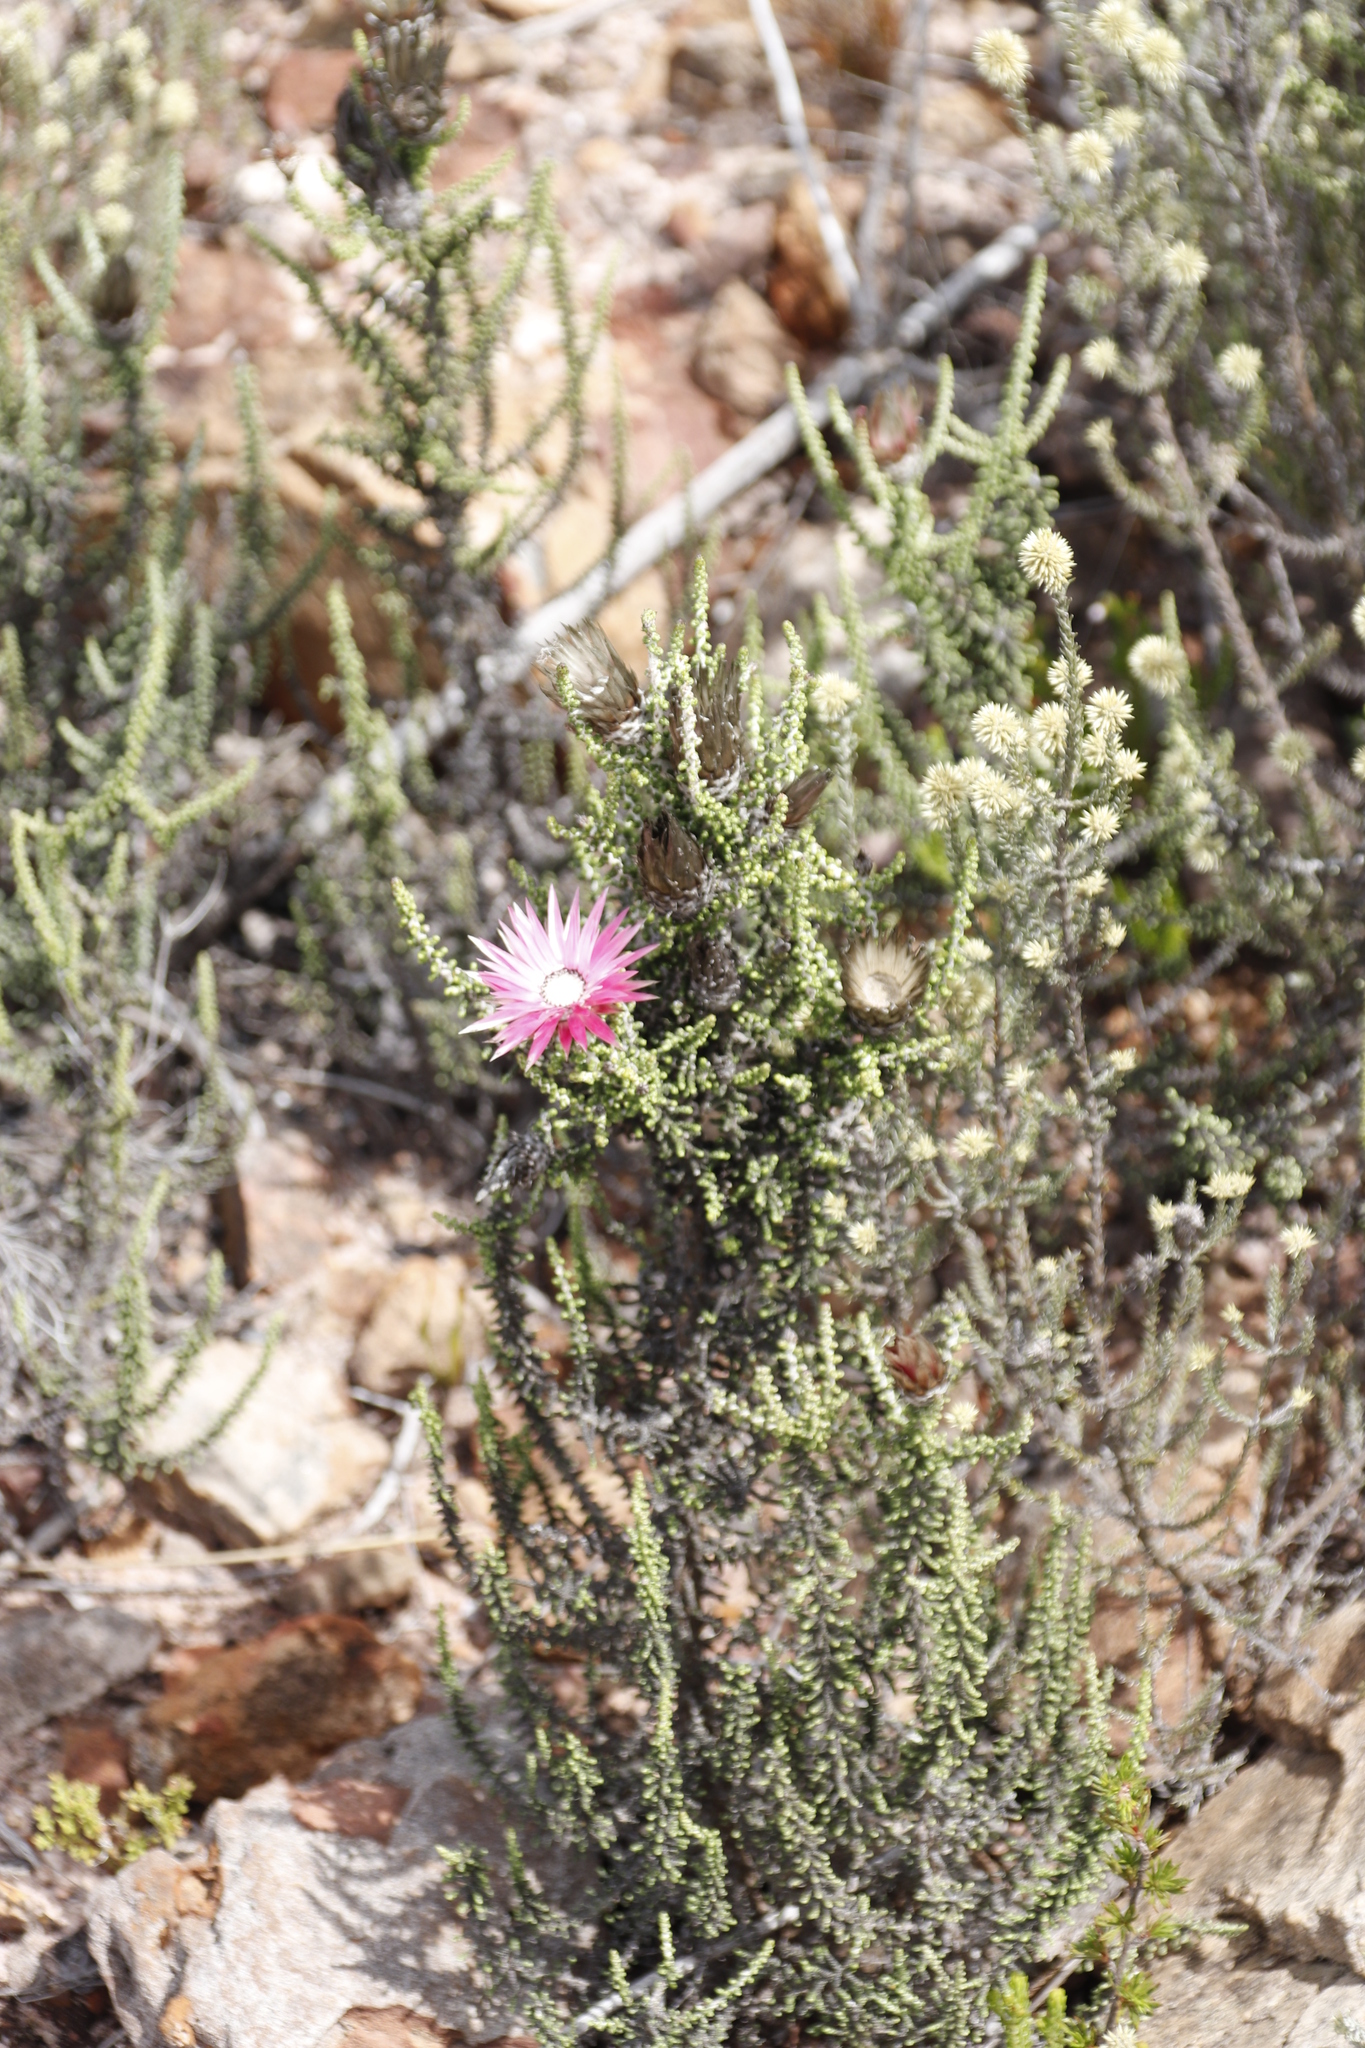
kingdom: Plantae
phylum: Tracheophyta
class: Magnoliopsida
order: Asterales
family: Asteraceae
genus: Phaenocoma
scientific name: Phaenocoma prolifera
